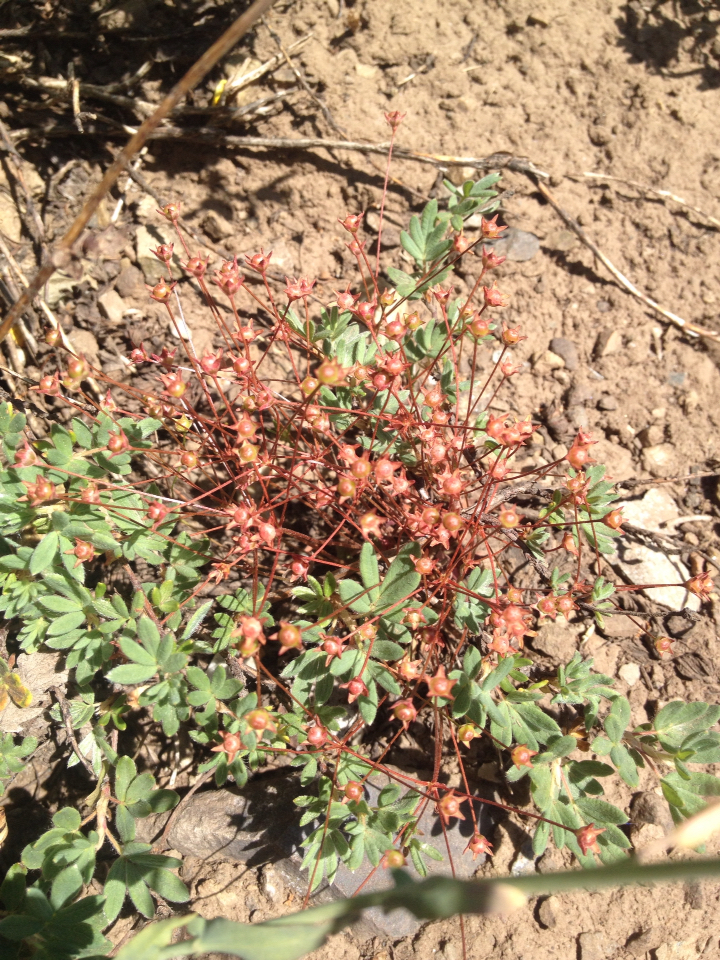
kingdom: Plantae
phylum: Tracheophyta
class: Magnoliopsida
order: Ericales
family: Primulaceae
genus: Androsace
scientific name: Androsace septentrionalis
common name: Hairy northern fairy-candelabra
